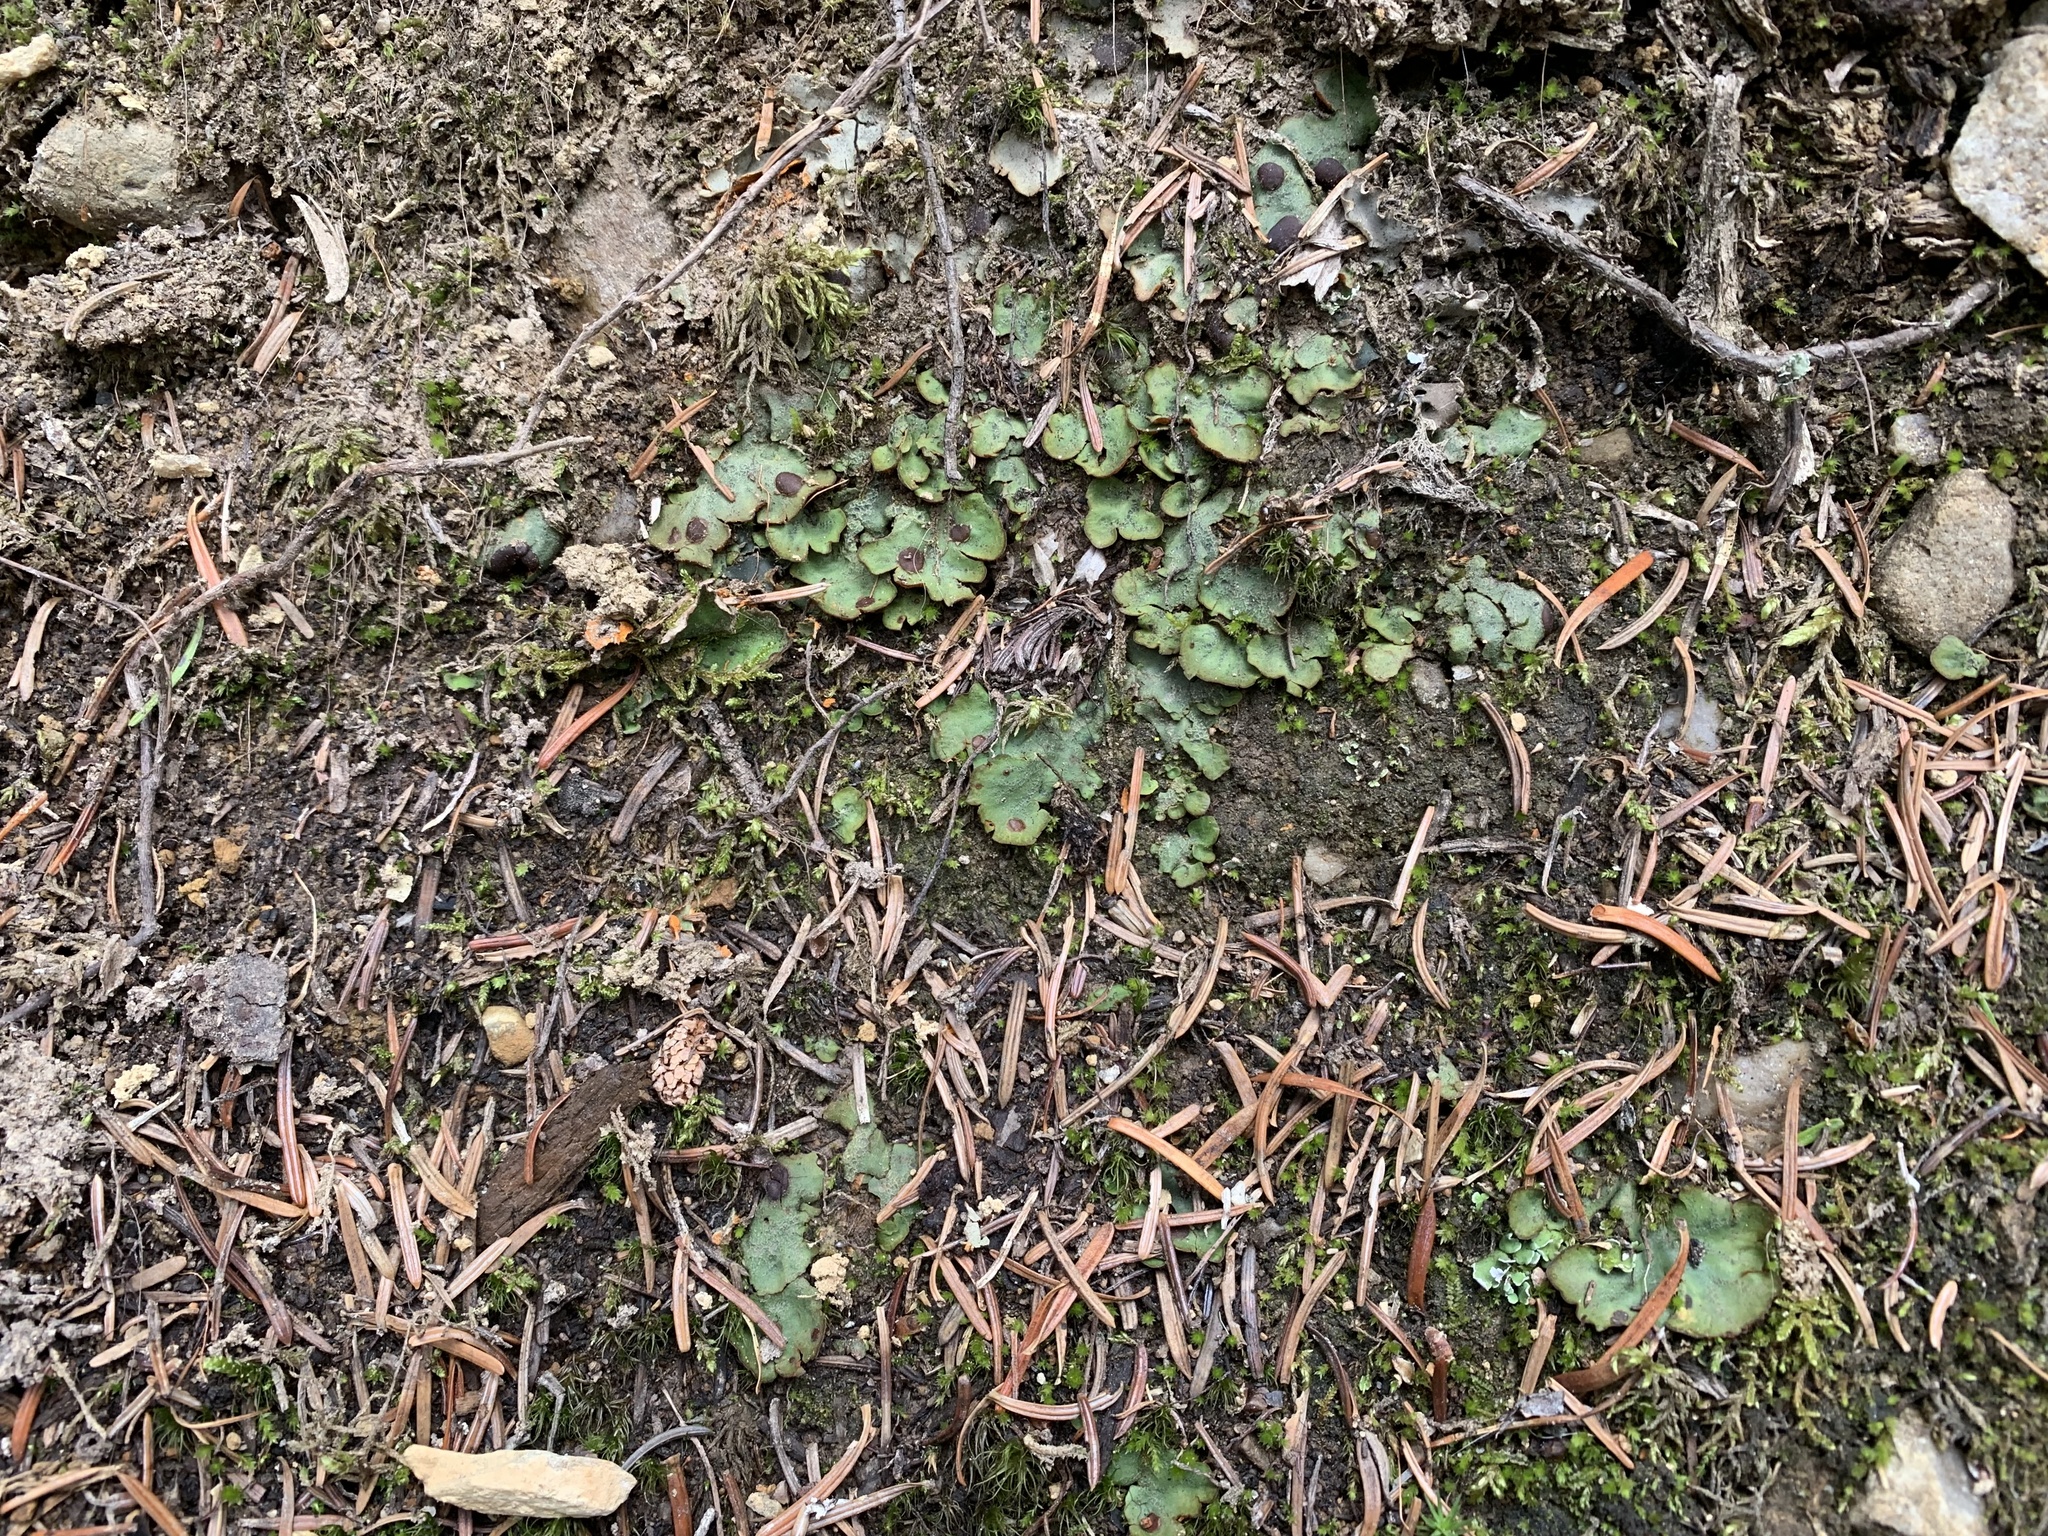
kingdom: Fungi
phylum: Ascomycota
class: Lecanoromycetes
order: Peltigerales
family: Peltigeraceae
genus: Solorina
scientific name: Solorina crocea
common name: Mountain saffron
